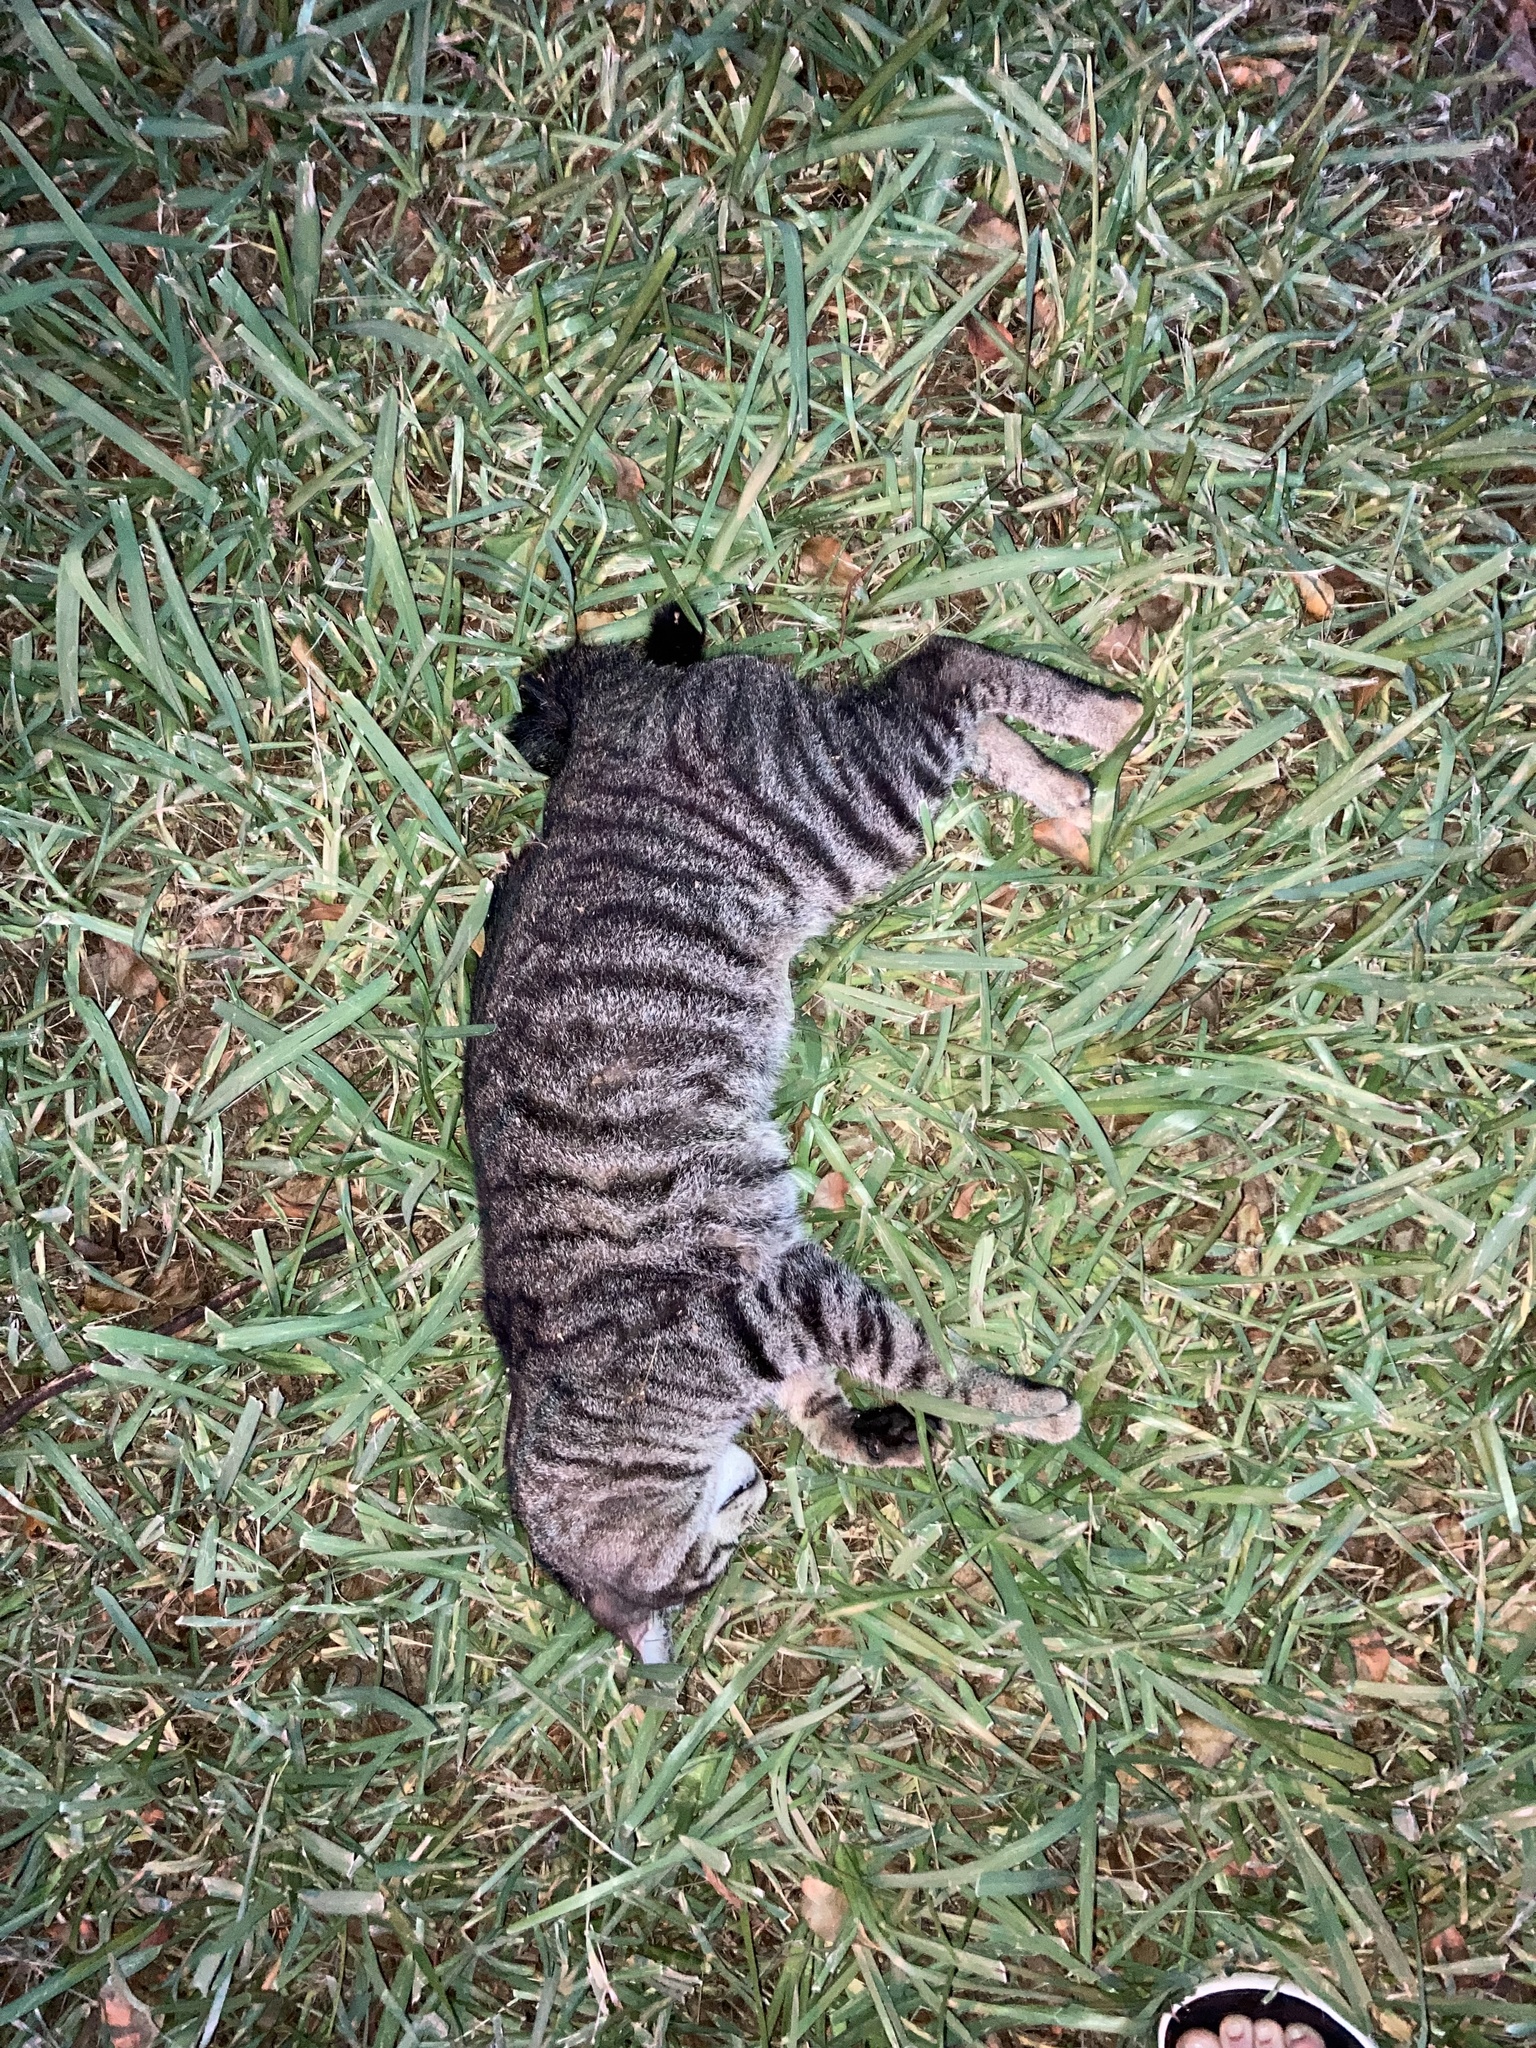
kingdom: Animalia
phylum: Chordata
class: Mammalia
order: Carnivora
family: Felidae
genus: Felis
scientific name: Felis catus
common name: Domestic cat
